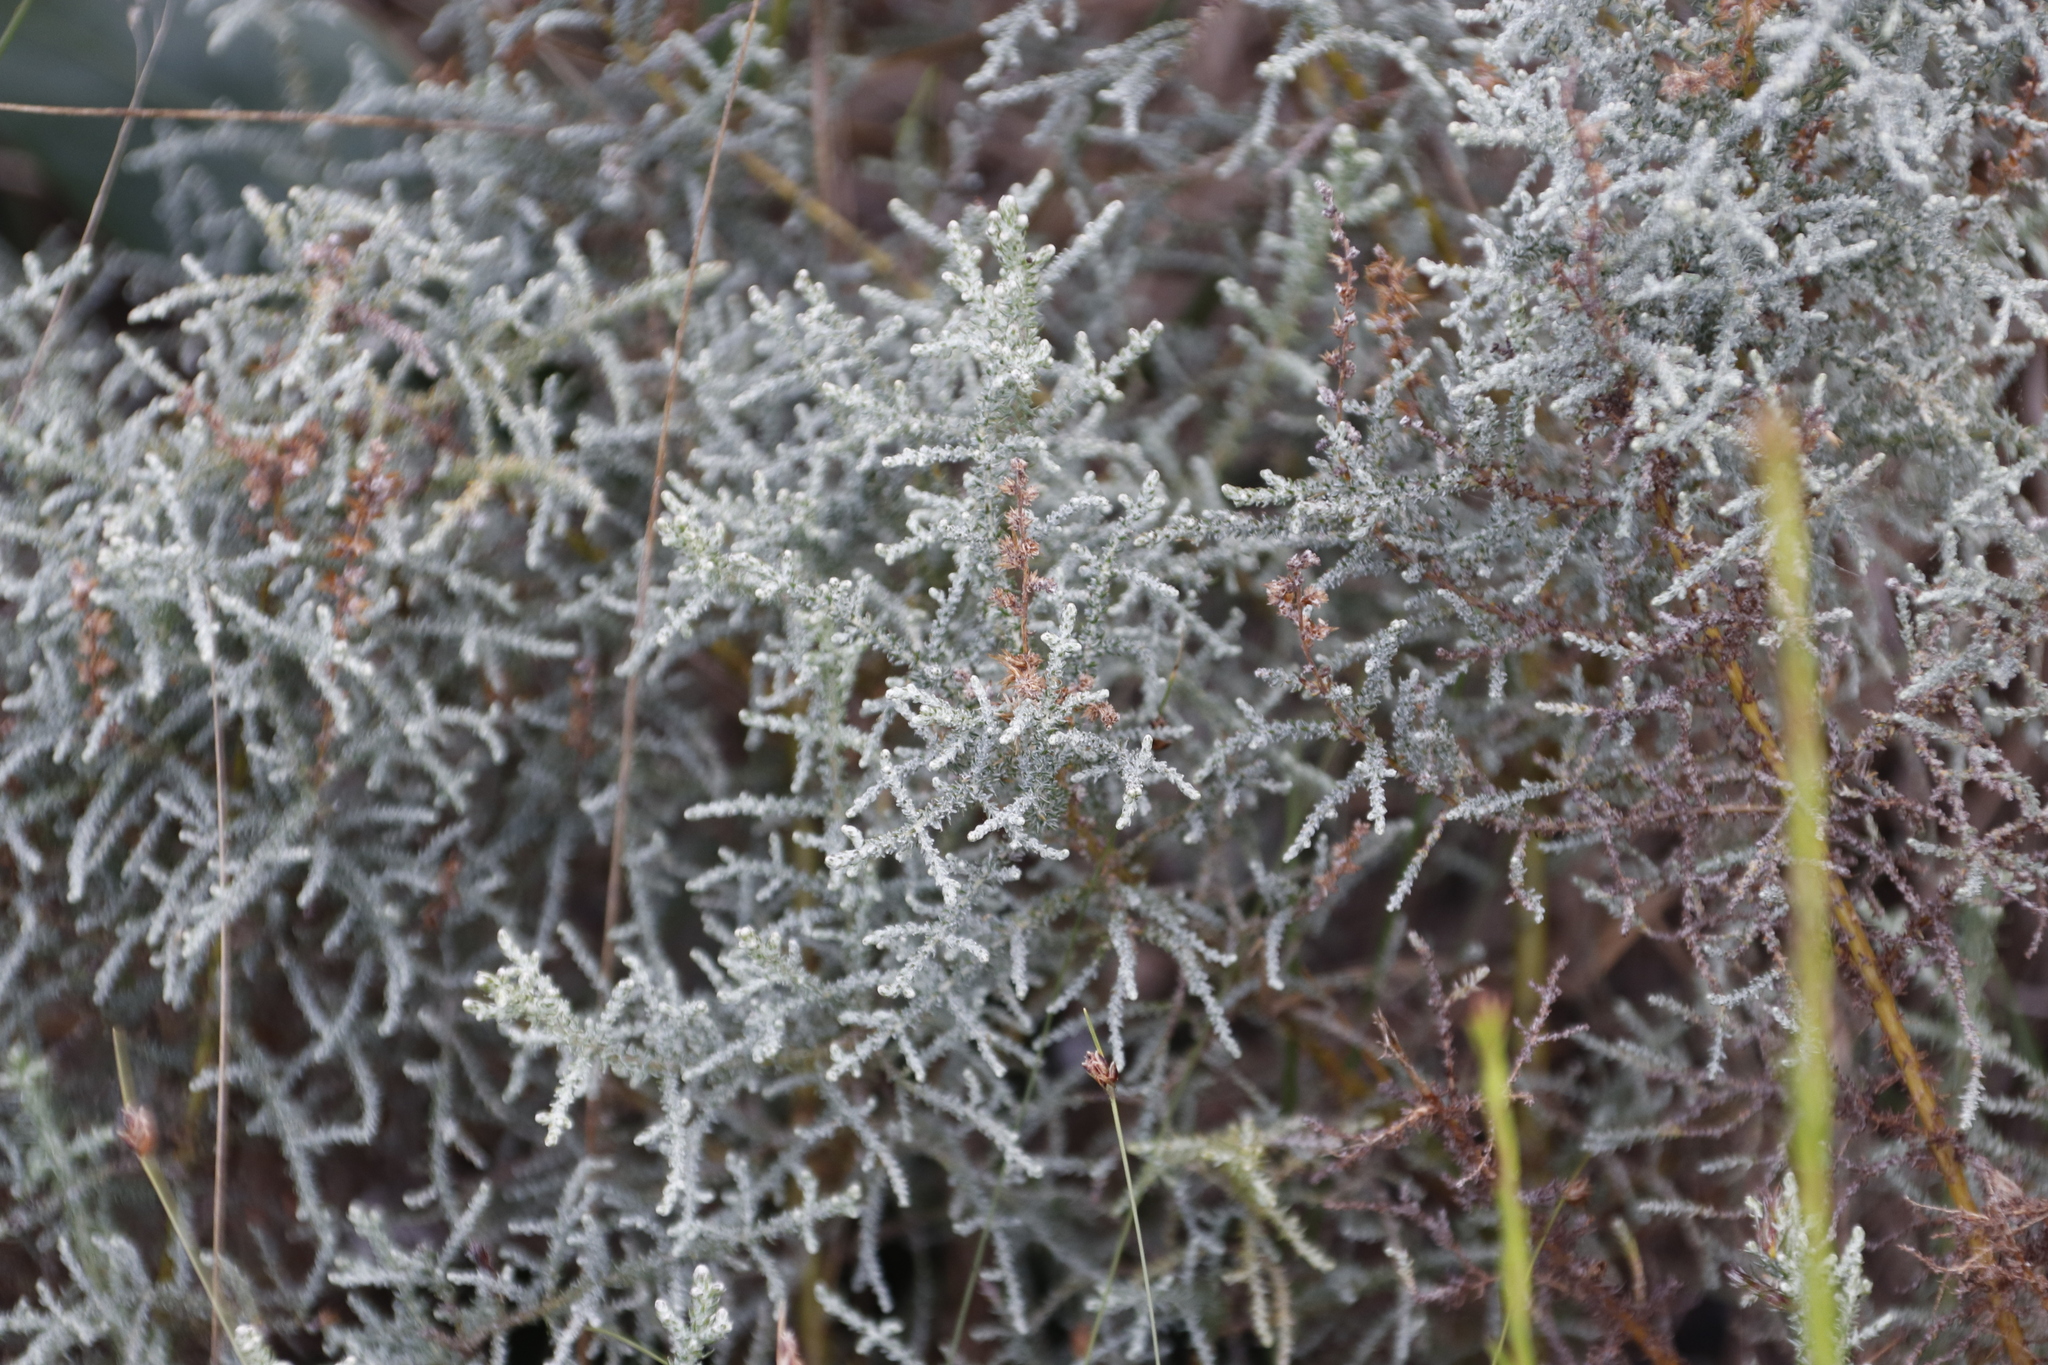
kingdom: Plantae
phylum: Tracheophyta
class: Magnoliopsida
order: Asterales
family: Asteraceae
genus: Seriphium
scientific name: Seriphium plumosum
